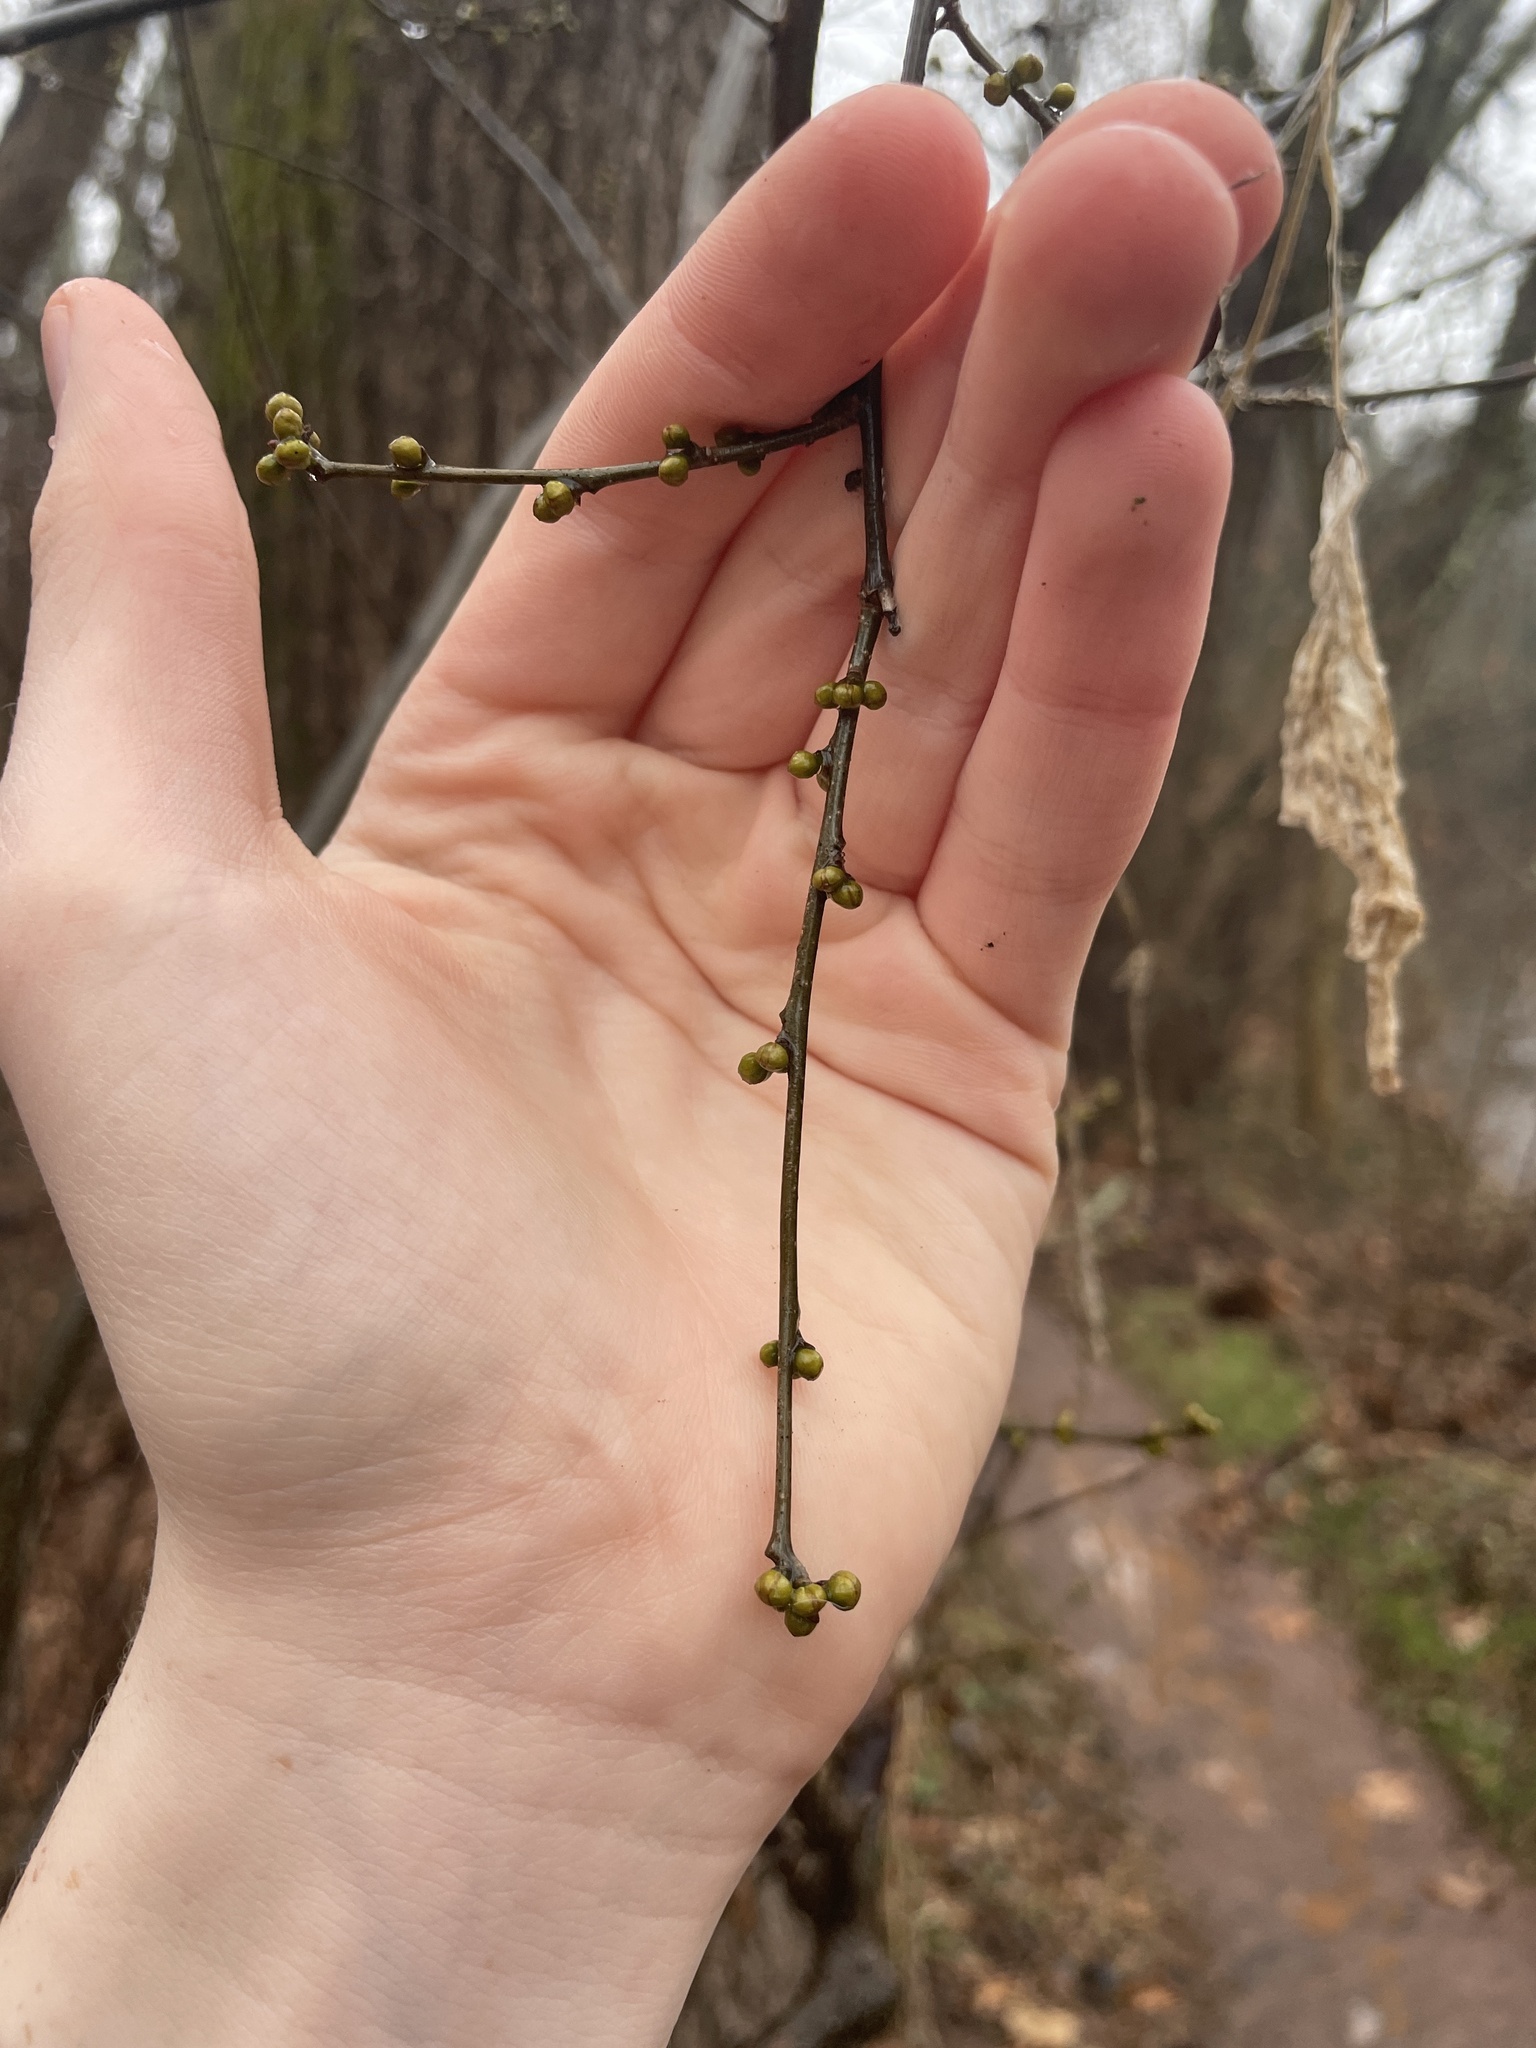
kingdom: Plantae
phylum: Tracheophyta
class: Magnoliopsida
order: Laurales
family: Lauraceae
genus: Lindera
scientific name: Lindera benzoin
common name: Spicebush
